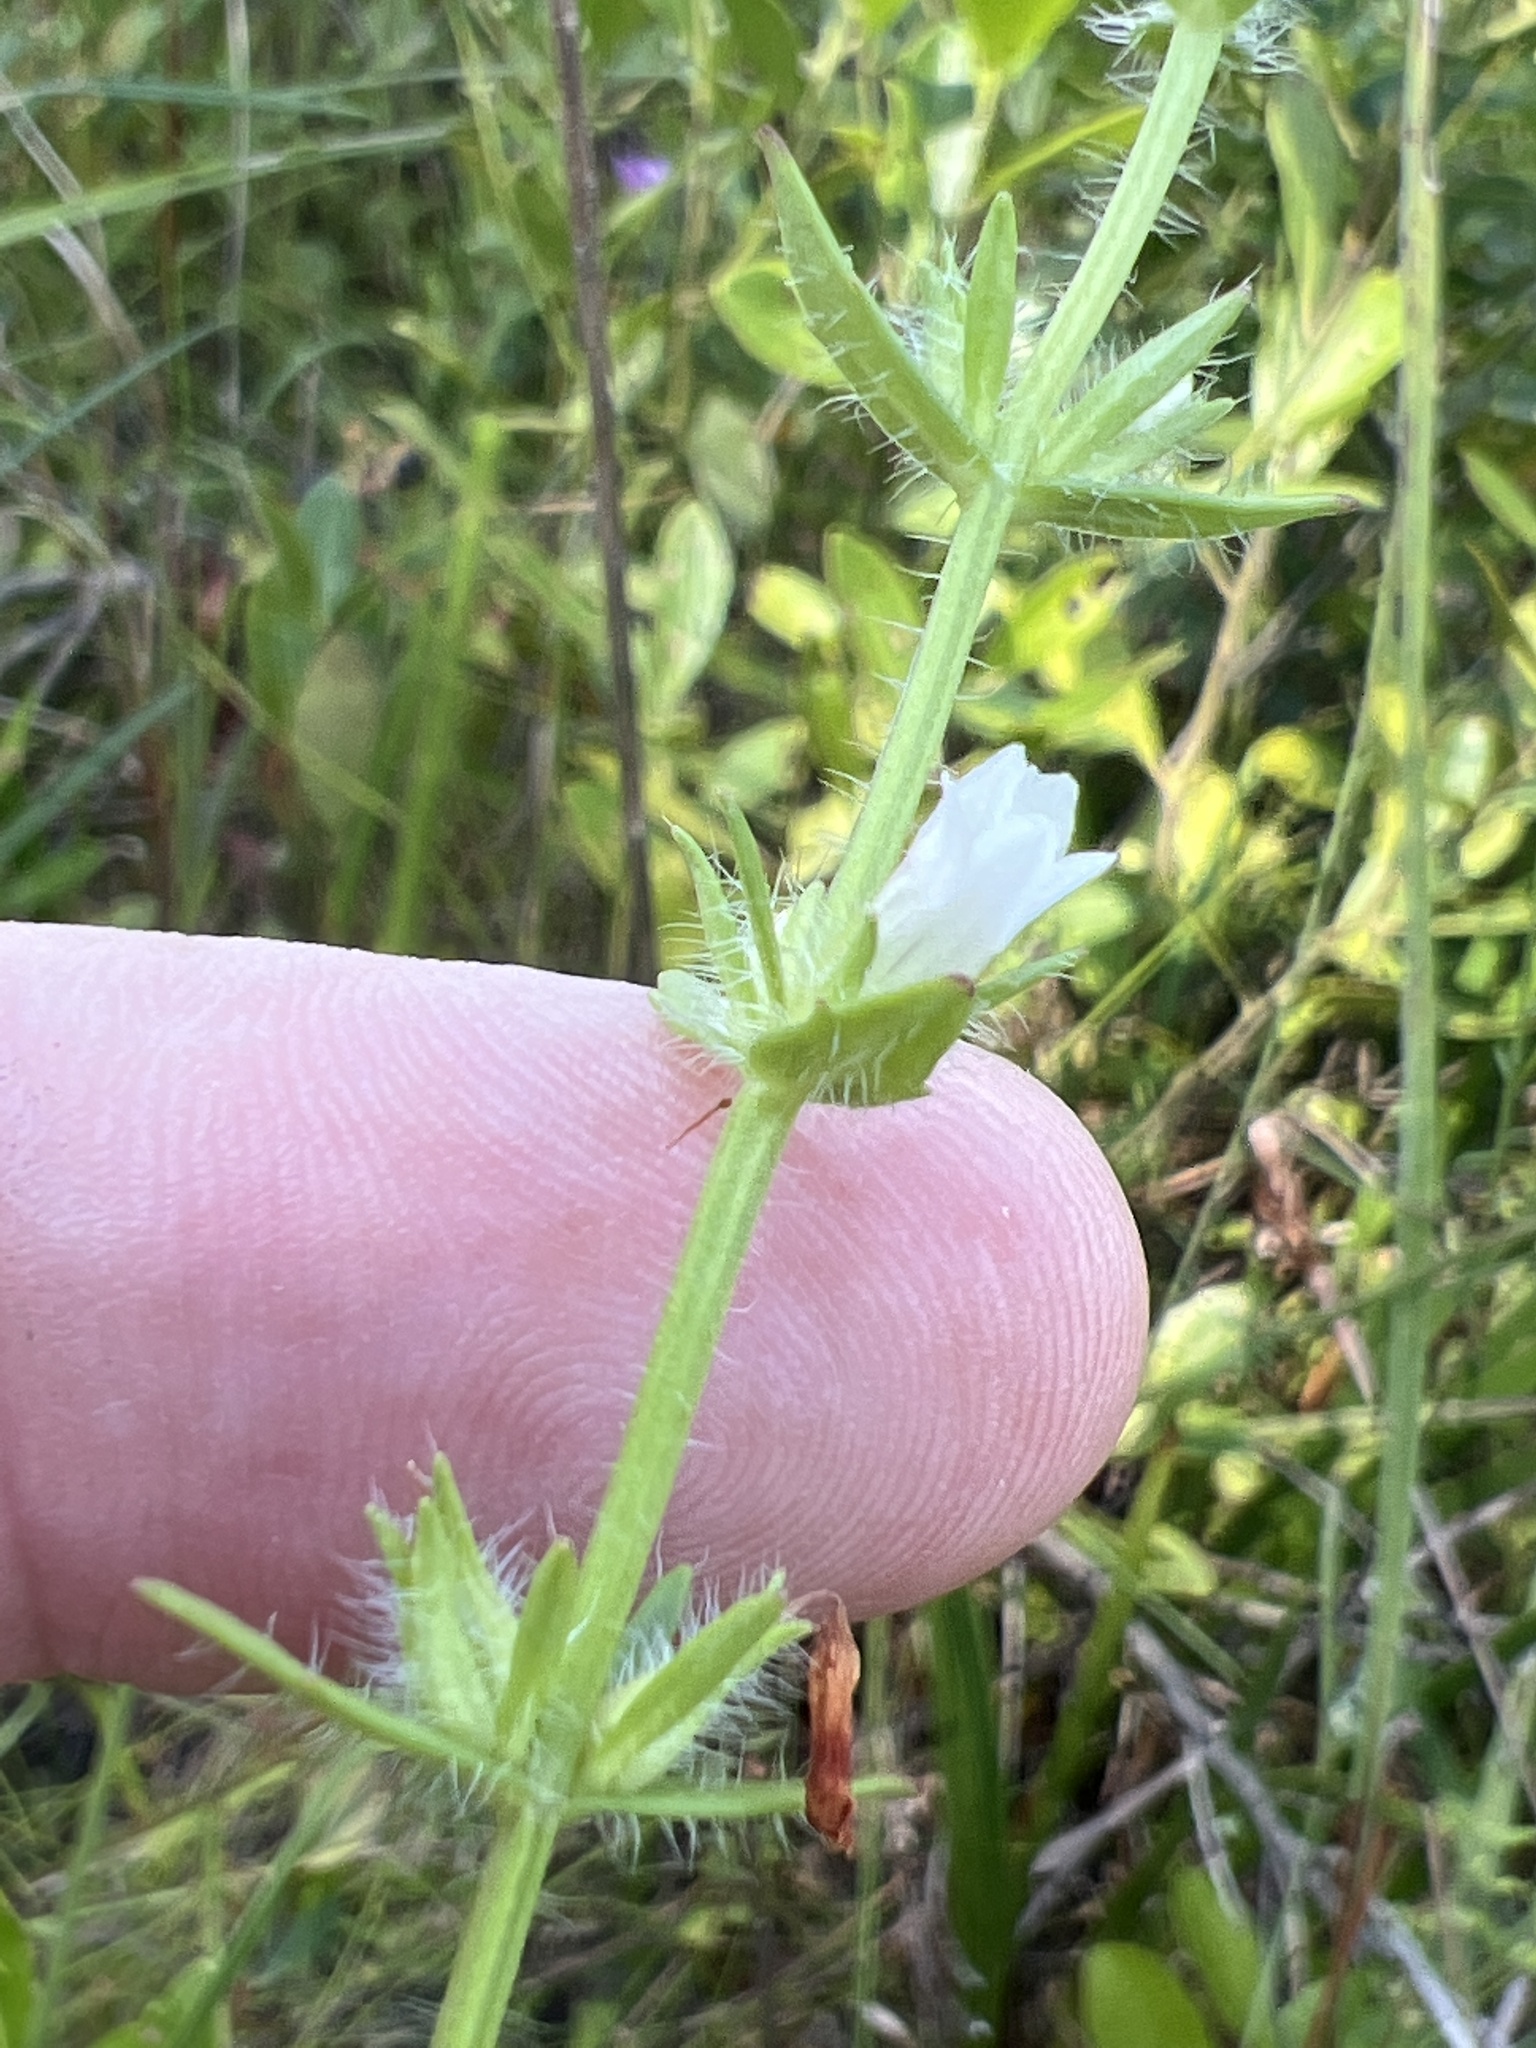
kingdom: Plantae
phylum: Tracheophyta
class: Magnoliopsida
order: Lamiales
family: Plantaginaceae
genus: Gratiola
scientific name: Gratiola pilosa
